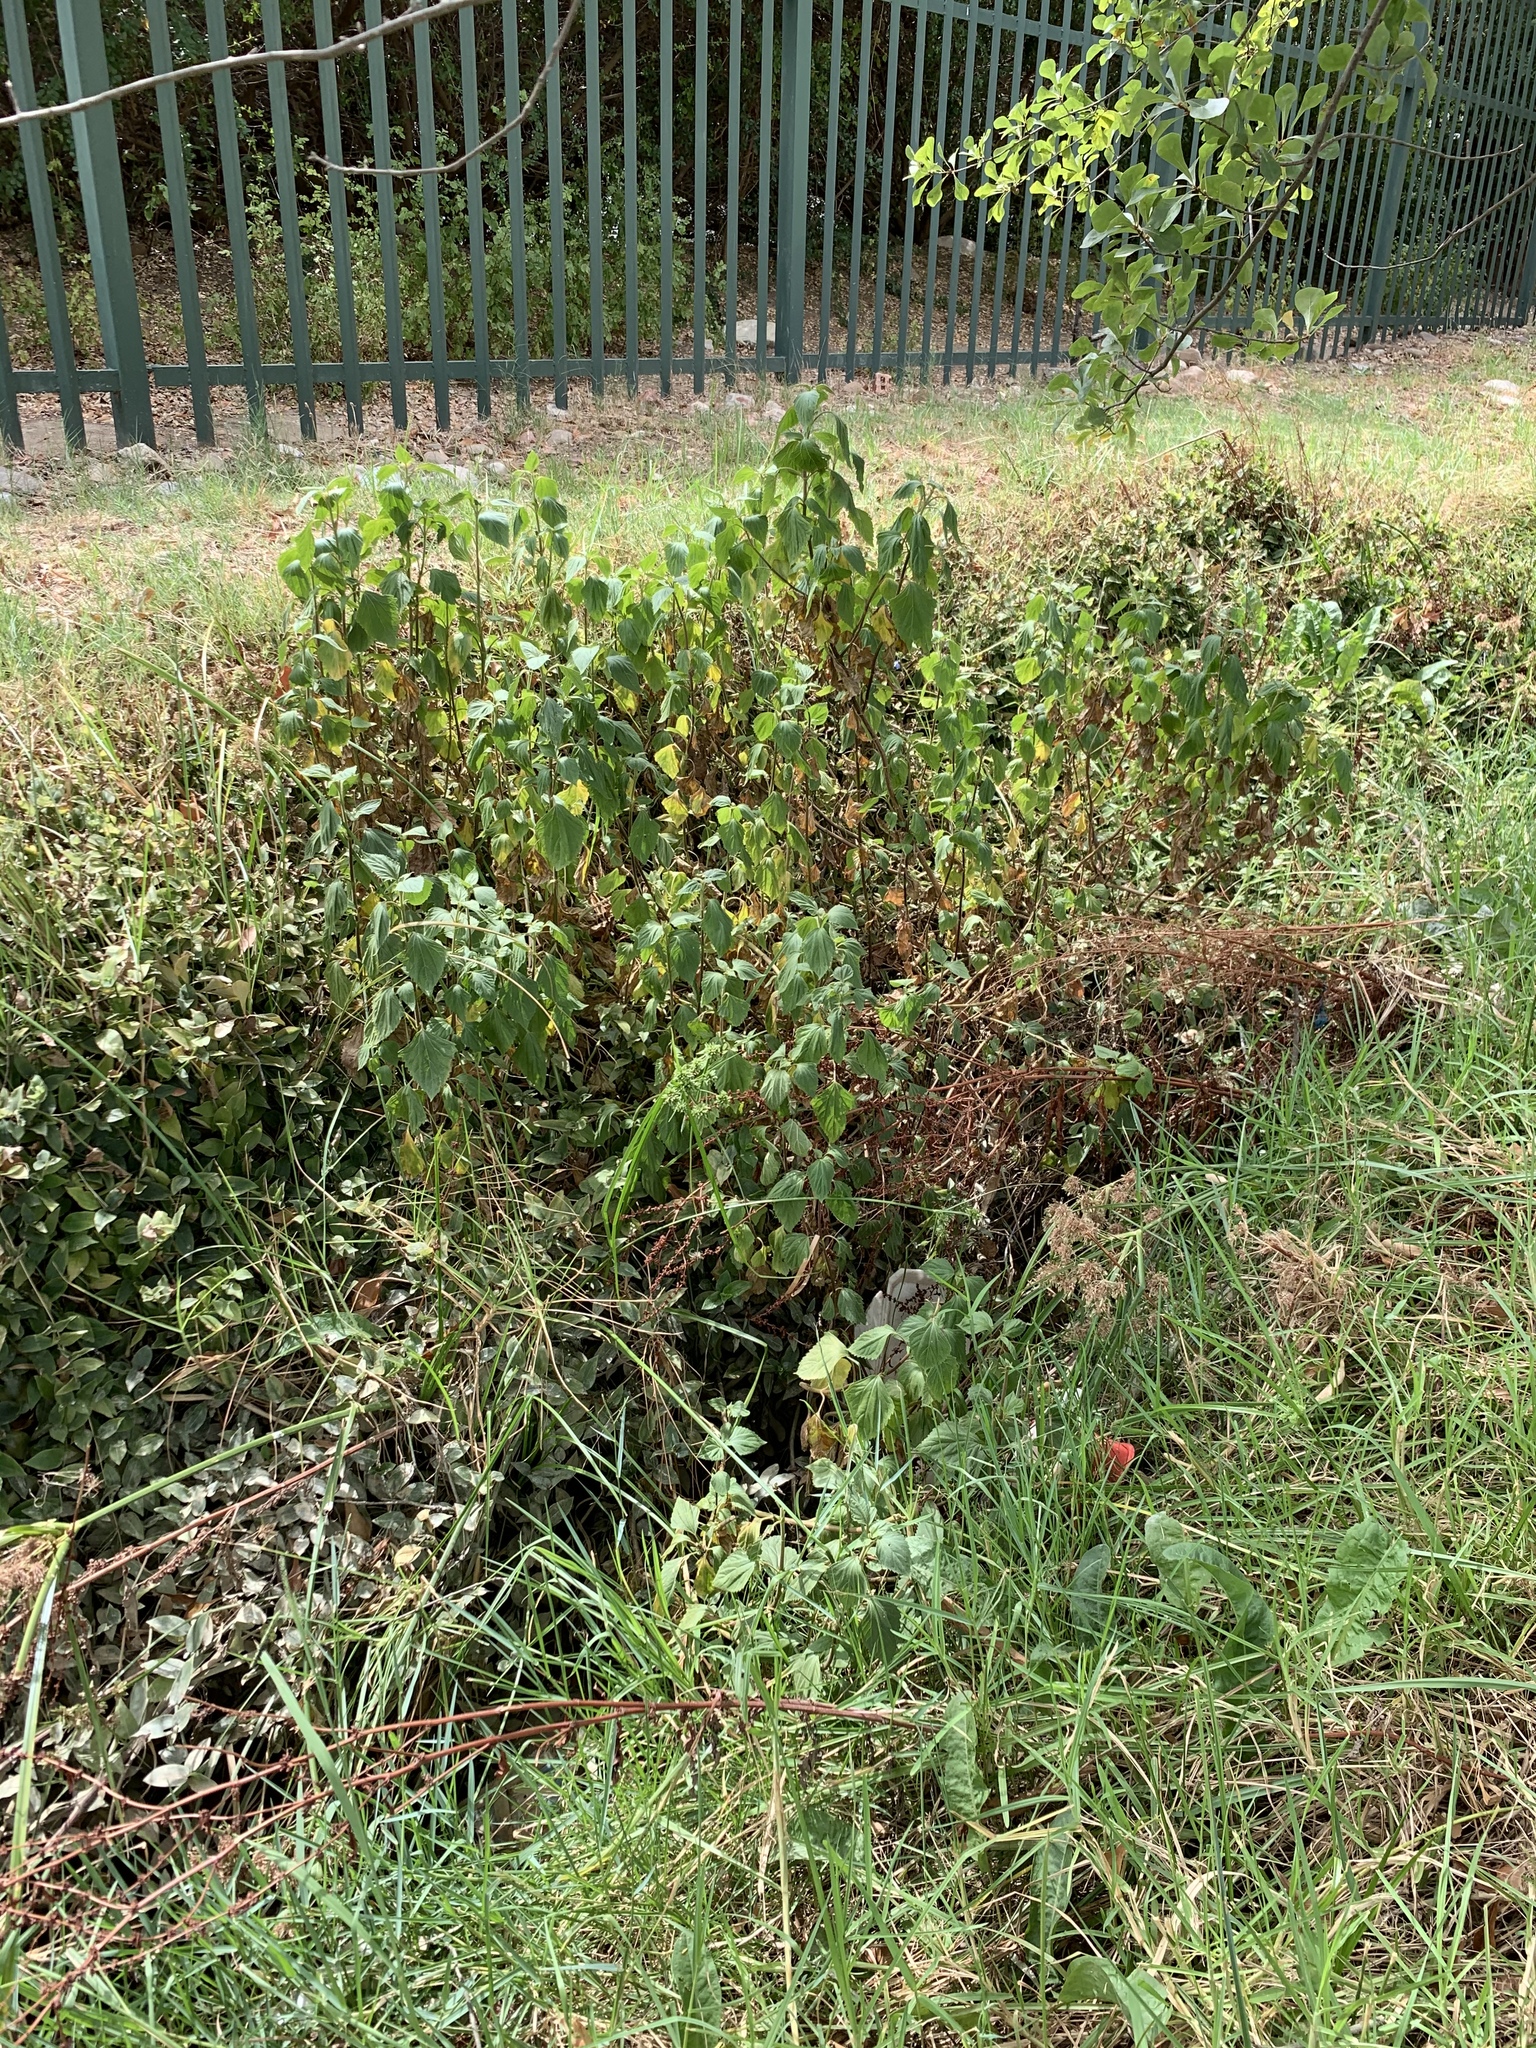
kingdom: Plantae
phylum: Tracheophyta
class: Magnoliopsida
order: Asterales
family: Asteraceae
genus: Ageratina
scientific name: Ageratina adenophora
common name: Sticky snakeroot
